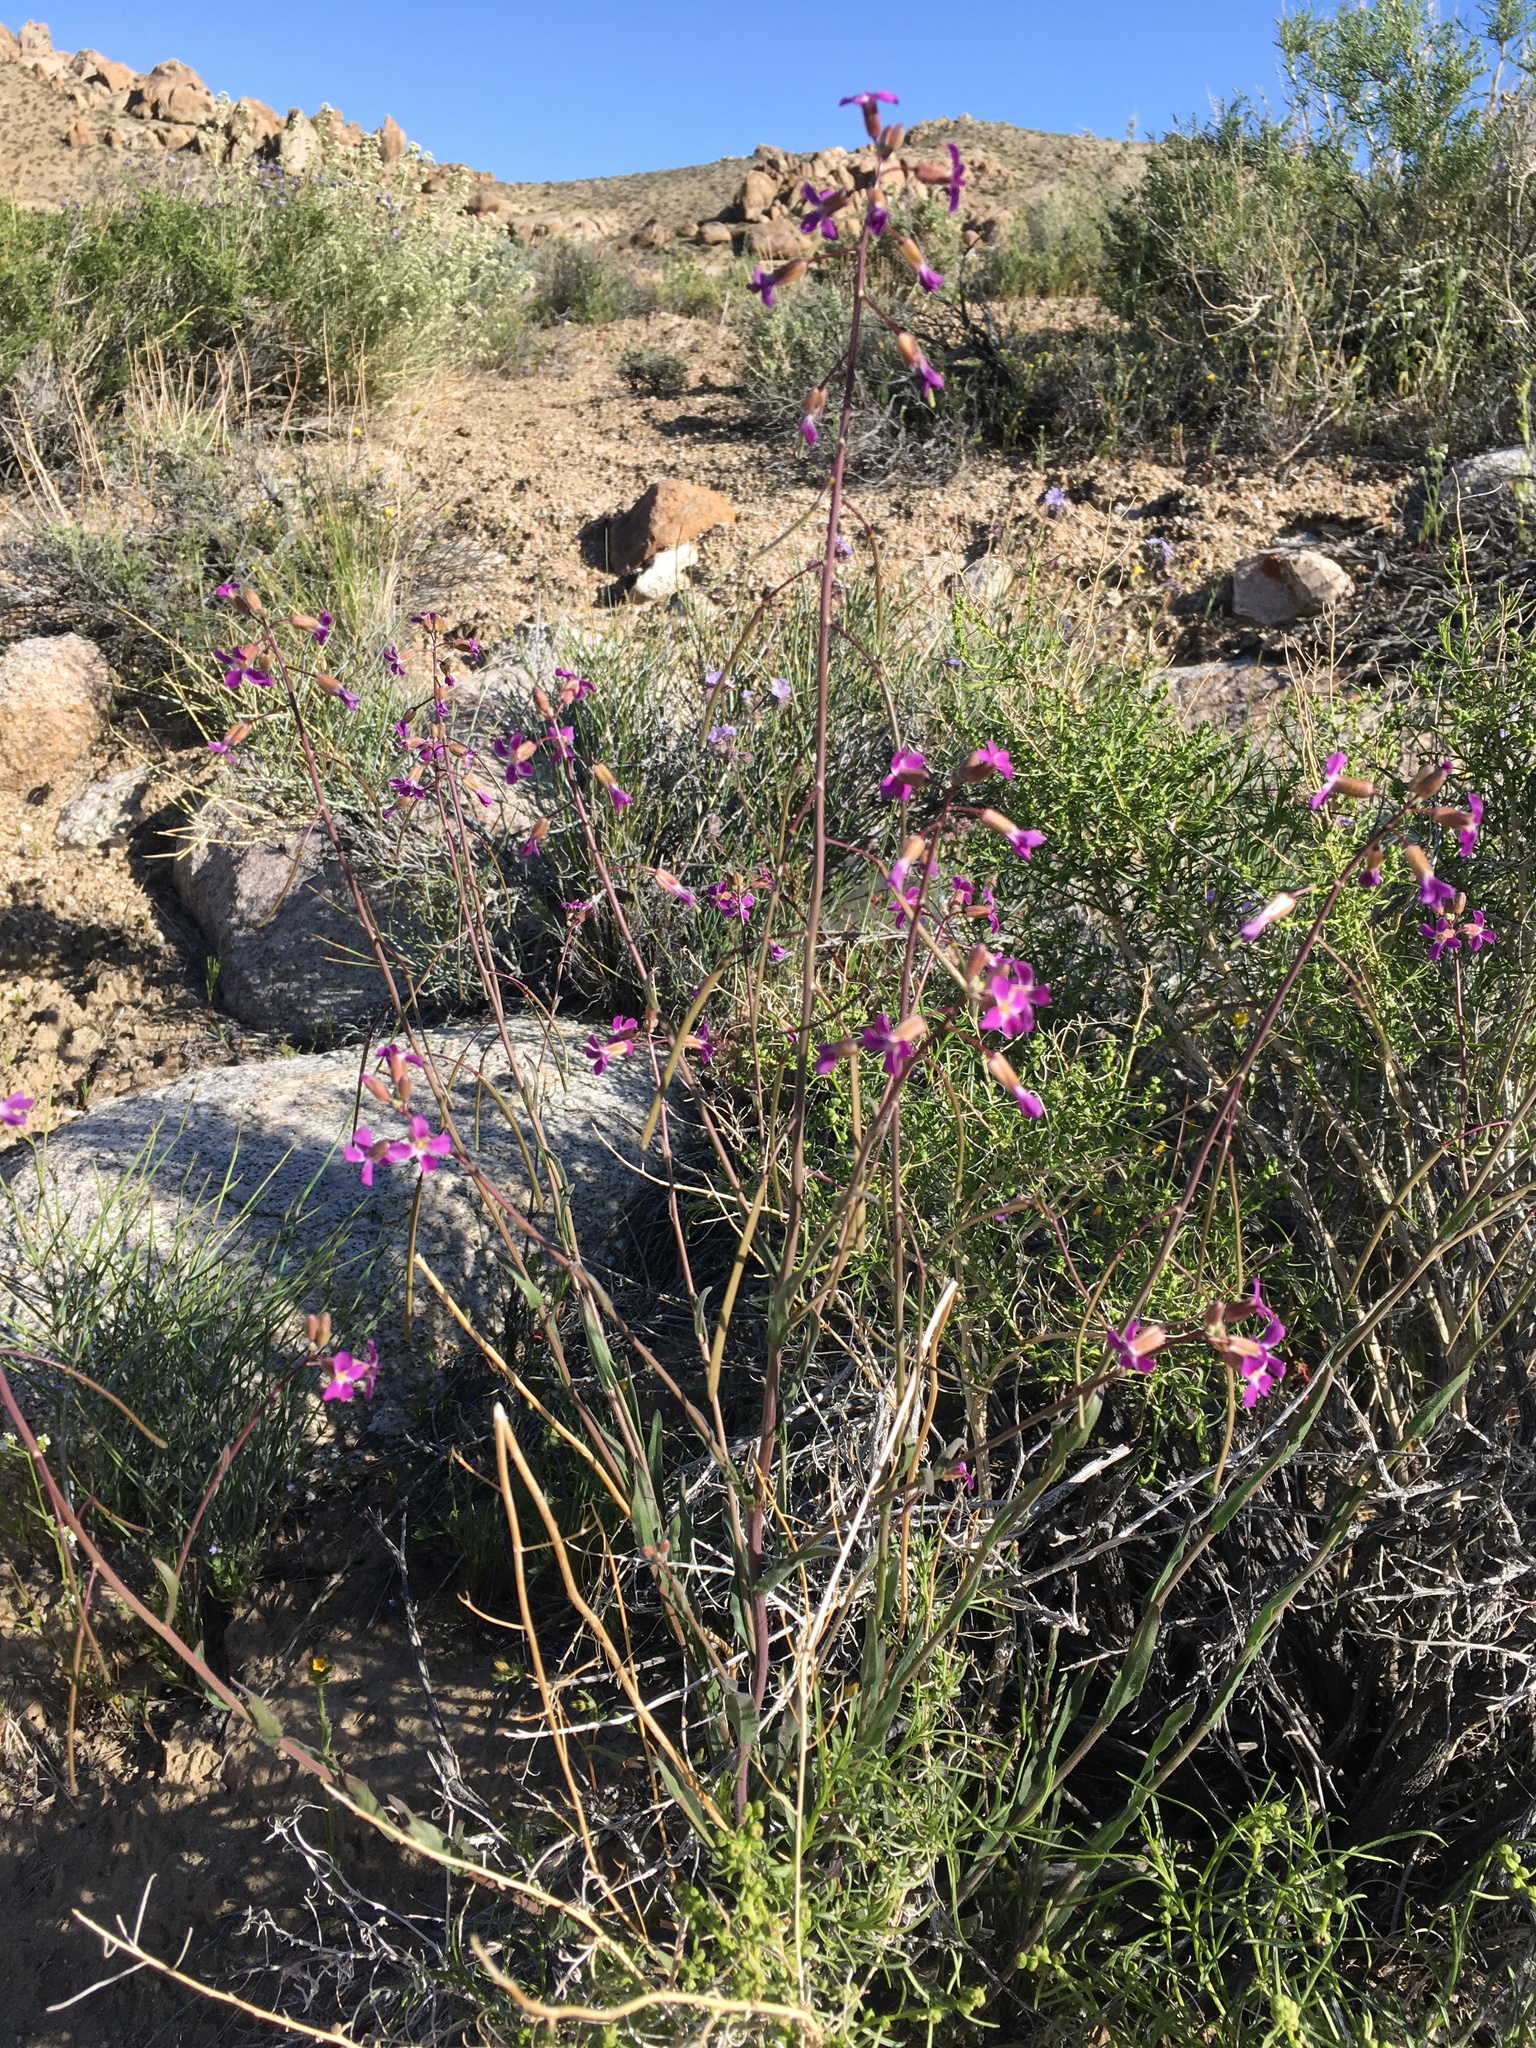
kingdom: Plantae
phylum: Tracheophyta
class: Magnoliopsida
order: Brassicales
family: Brassicaceae
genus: Boechera
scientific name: Boechera xylopoda
